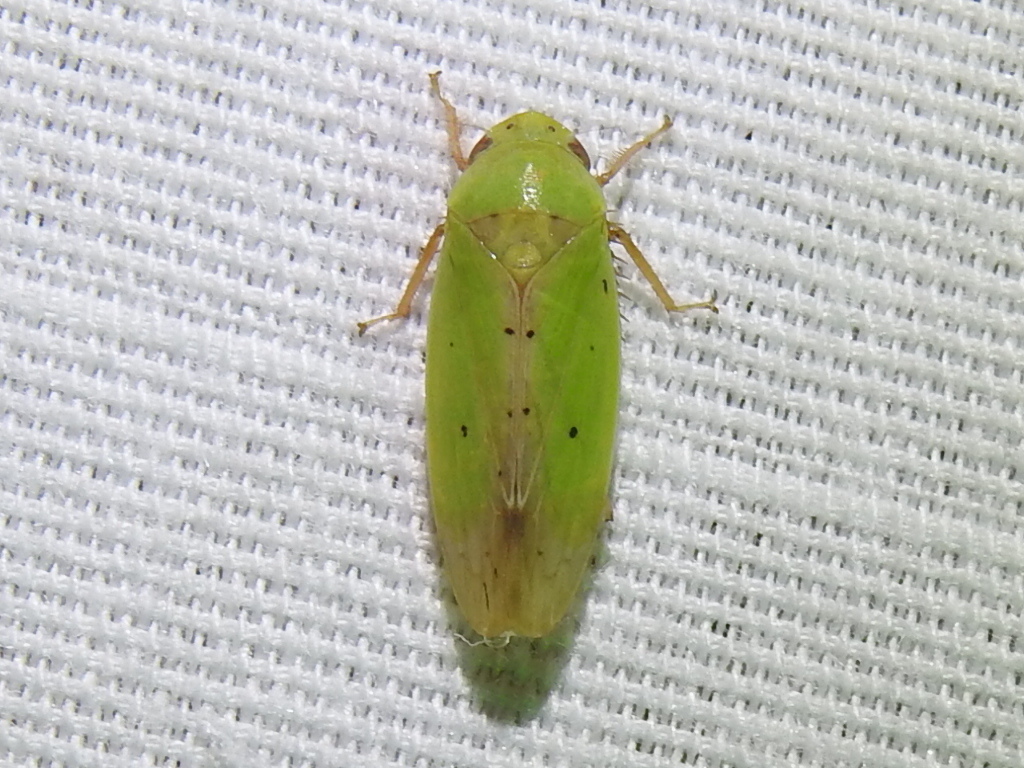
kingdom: Animalia
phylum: Arthropoda
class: Insecta
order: Hemiptera
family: Cicadellidae
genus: Ponana
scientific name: Ponana
